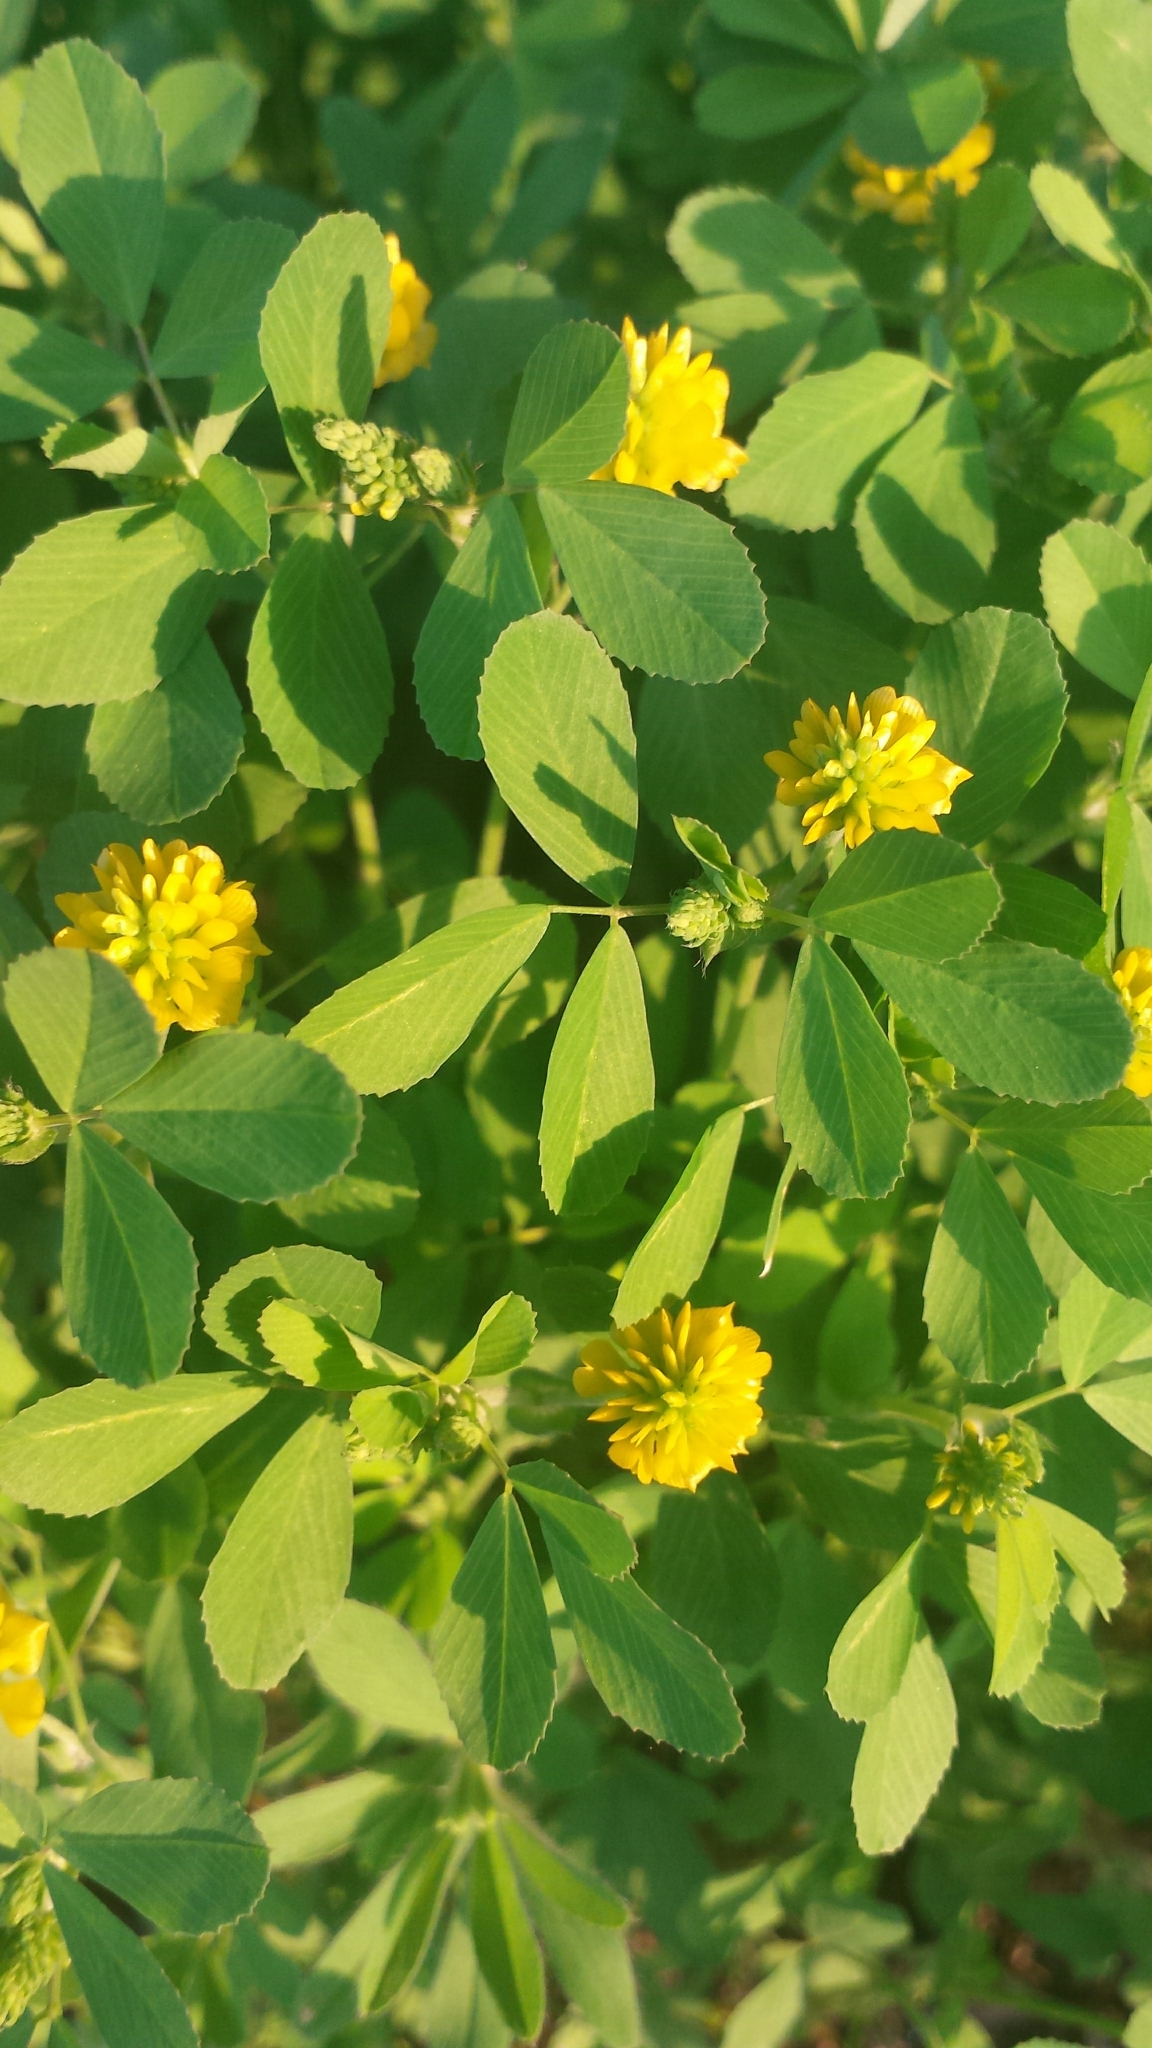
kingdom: Plantae
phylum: Tracheophyta
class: Magnoliopsida
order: Fabales
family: Fabaceae
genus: Trifolium
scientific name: Trifolium campestre
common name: Field clover
